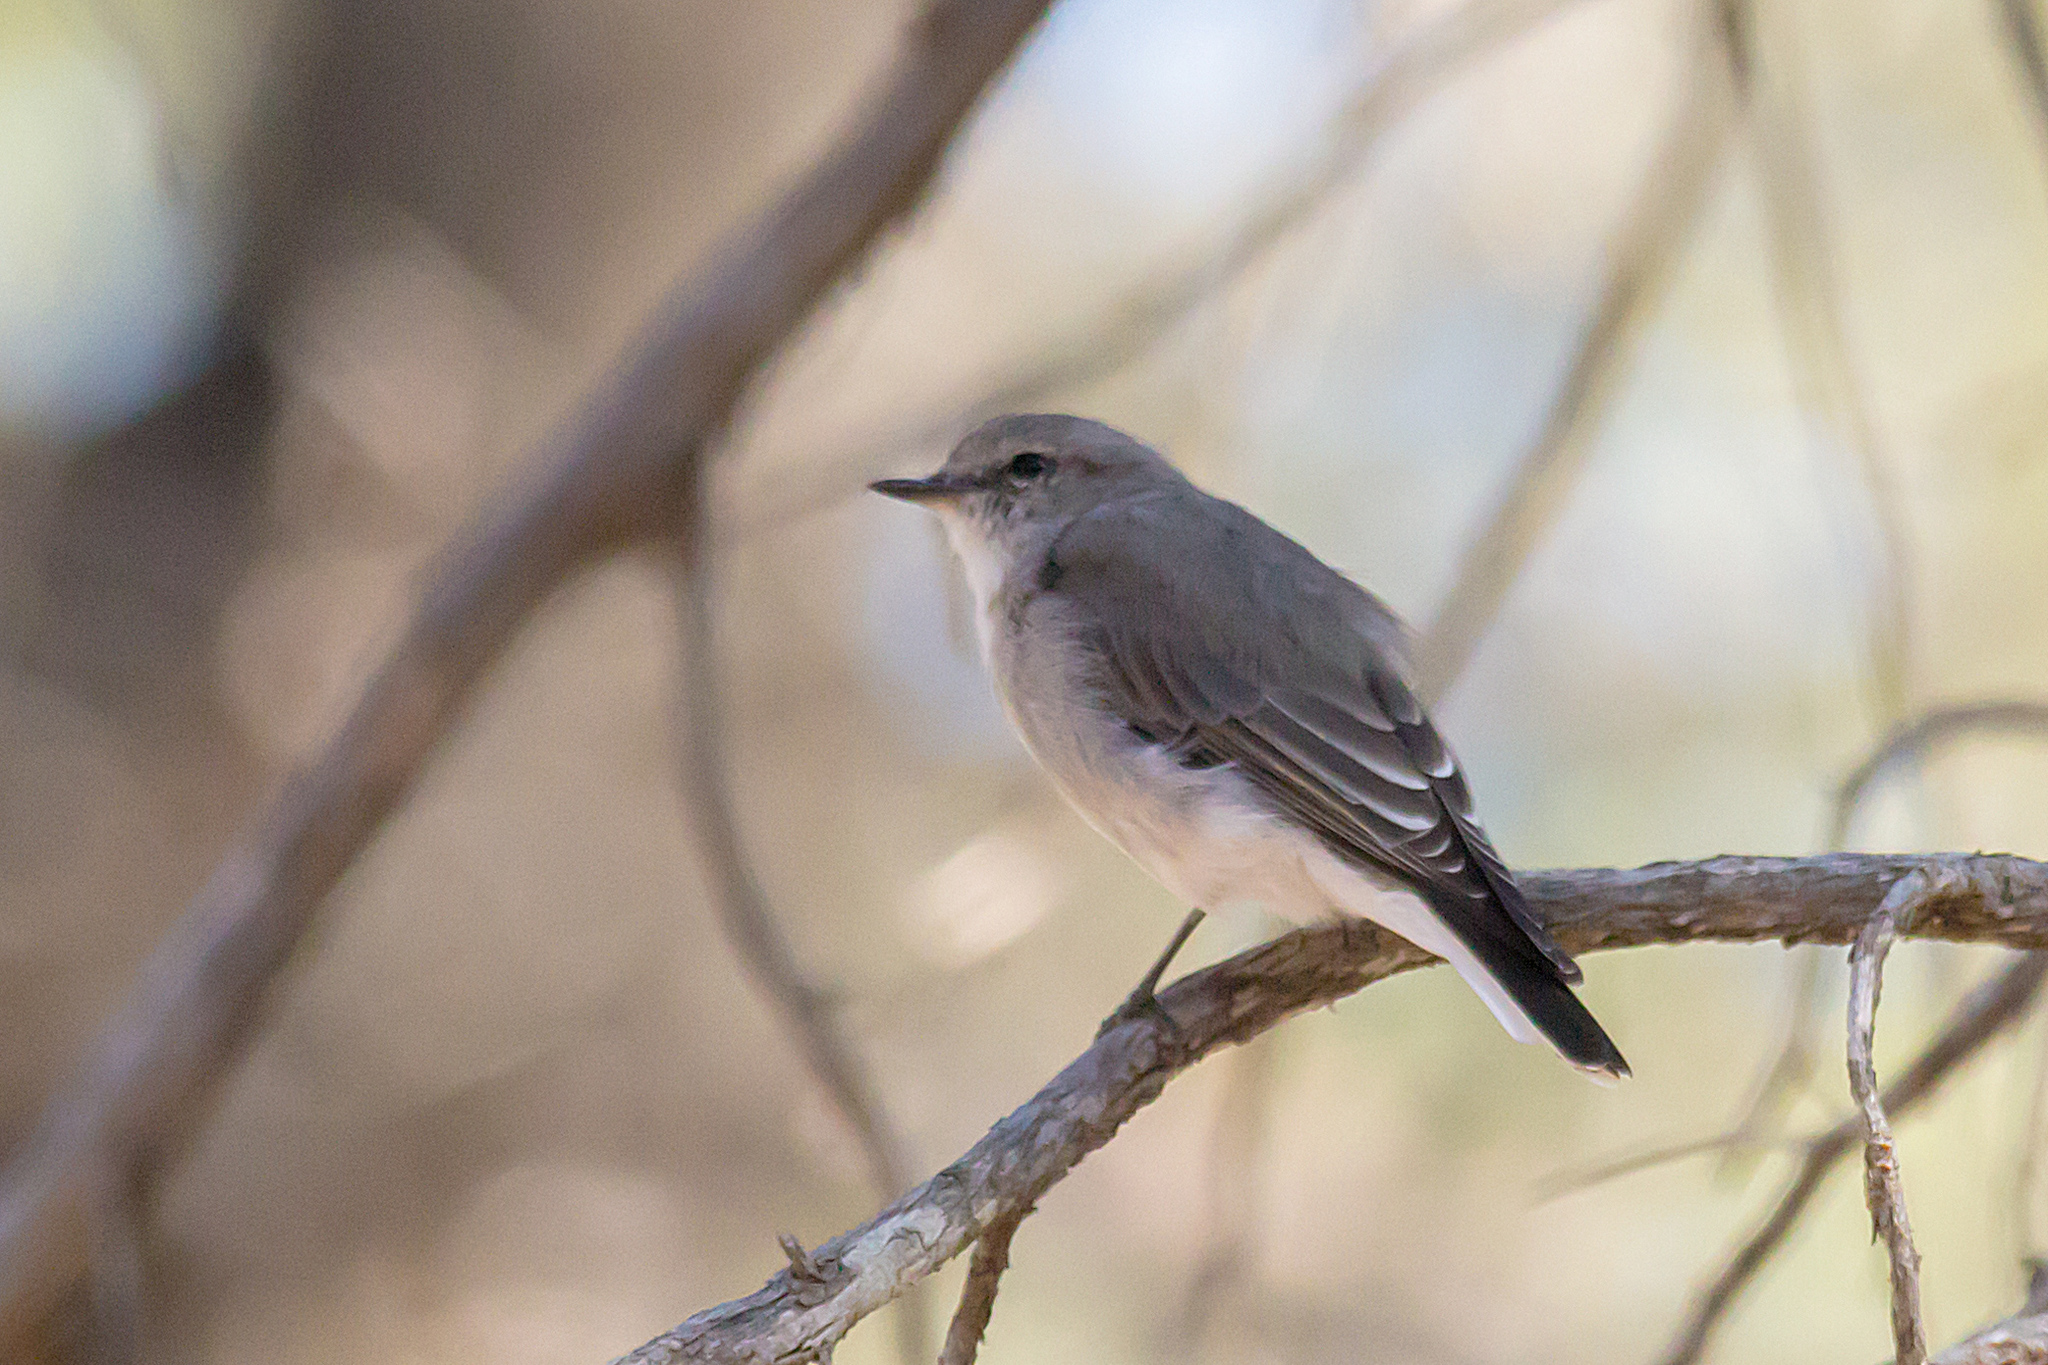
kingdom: Animalia
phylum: Chordata
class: Aves
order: Passeriformes
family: Petroicidae
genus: Microeca
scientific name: Microeca fascinans
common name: Jacky winter
